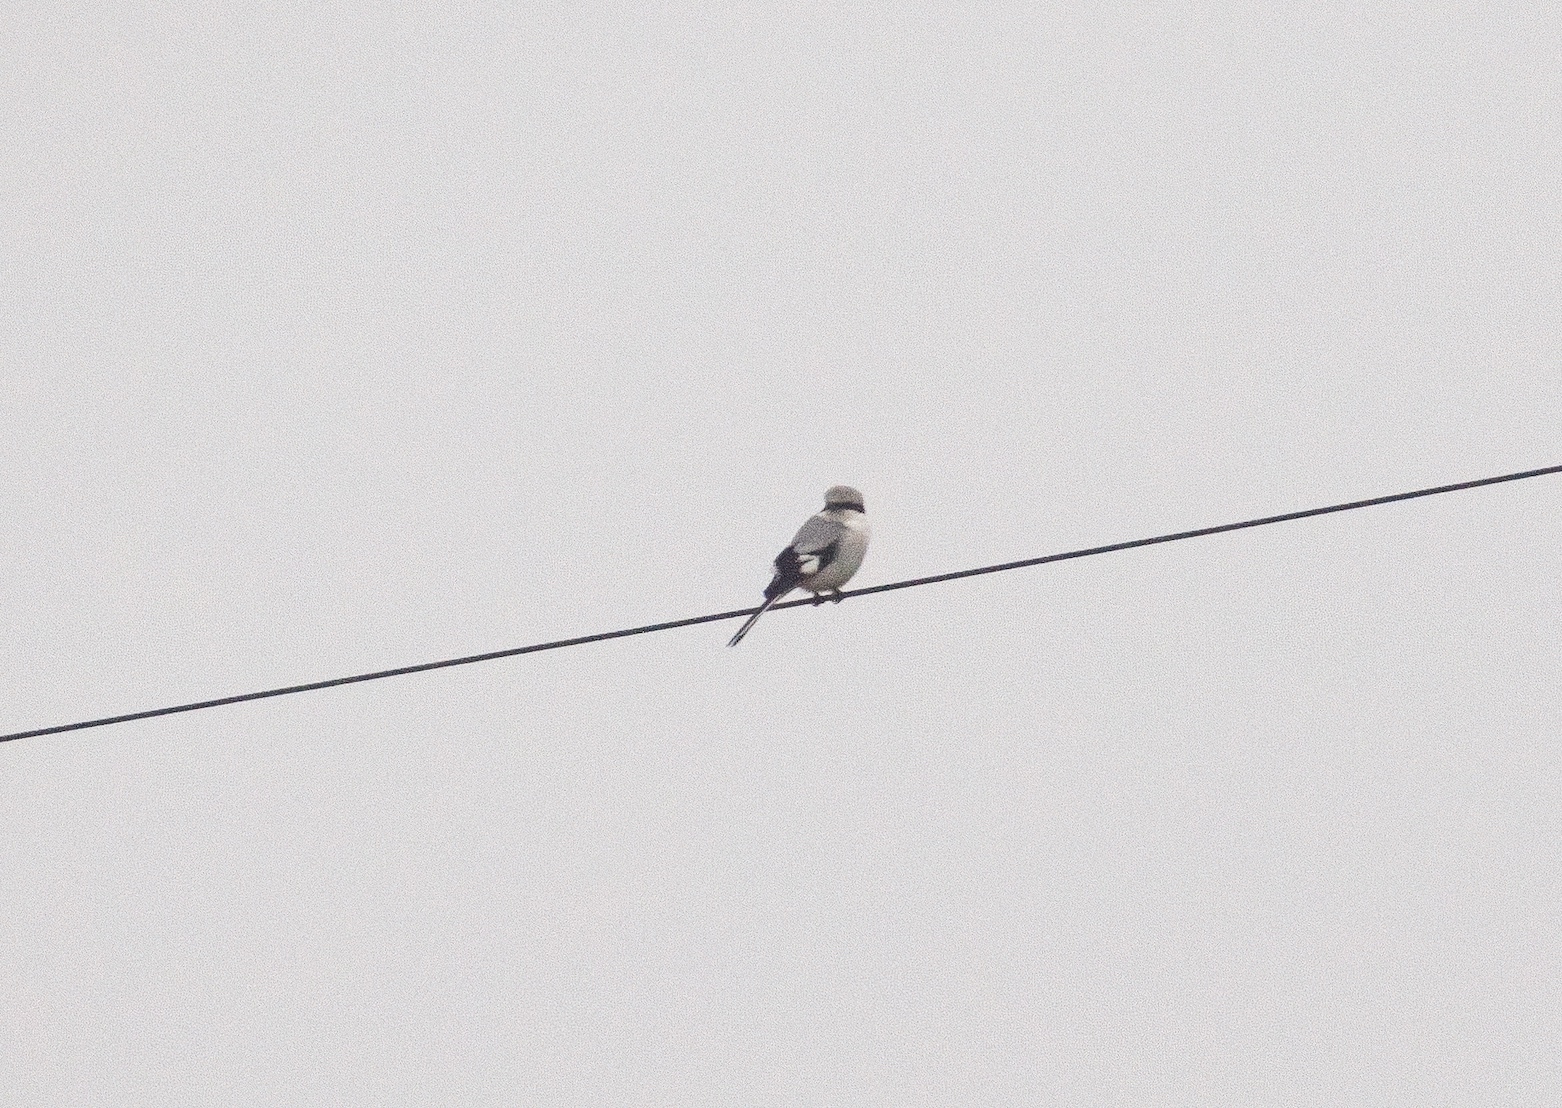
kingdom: Animalia
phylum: Chordata
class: Aves
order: Passeriformes
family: Laniidae
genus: Lanius
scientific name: Lanius excubitor
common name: Great grey shrike
